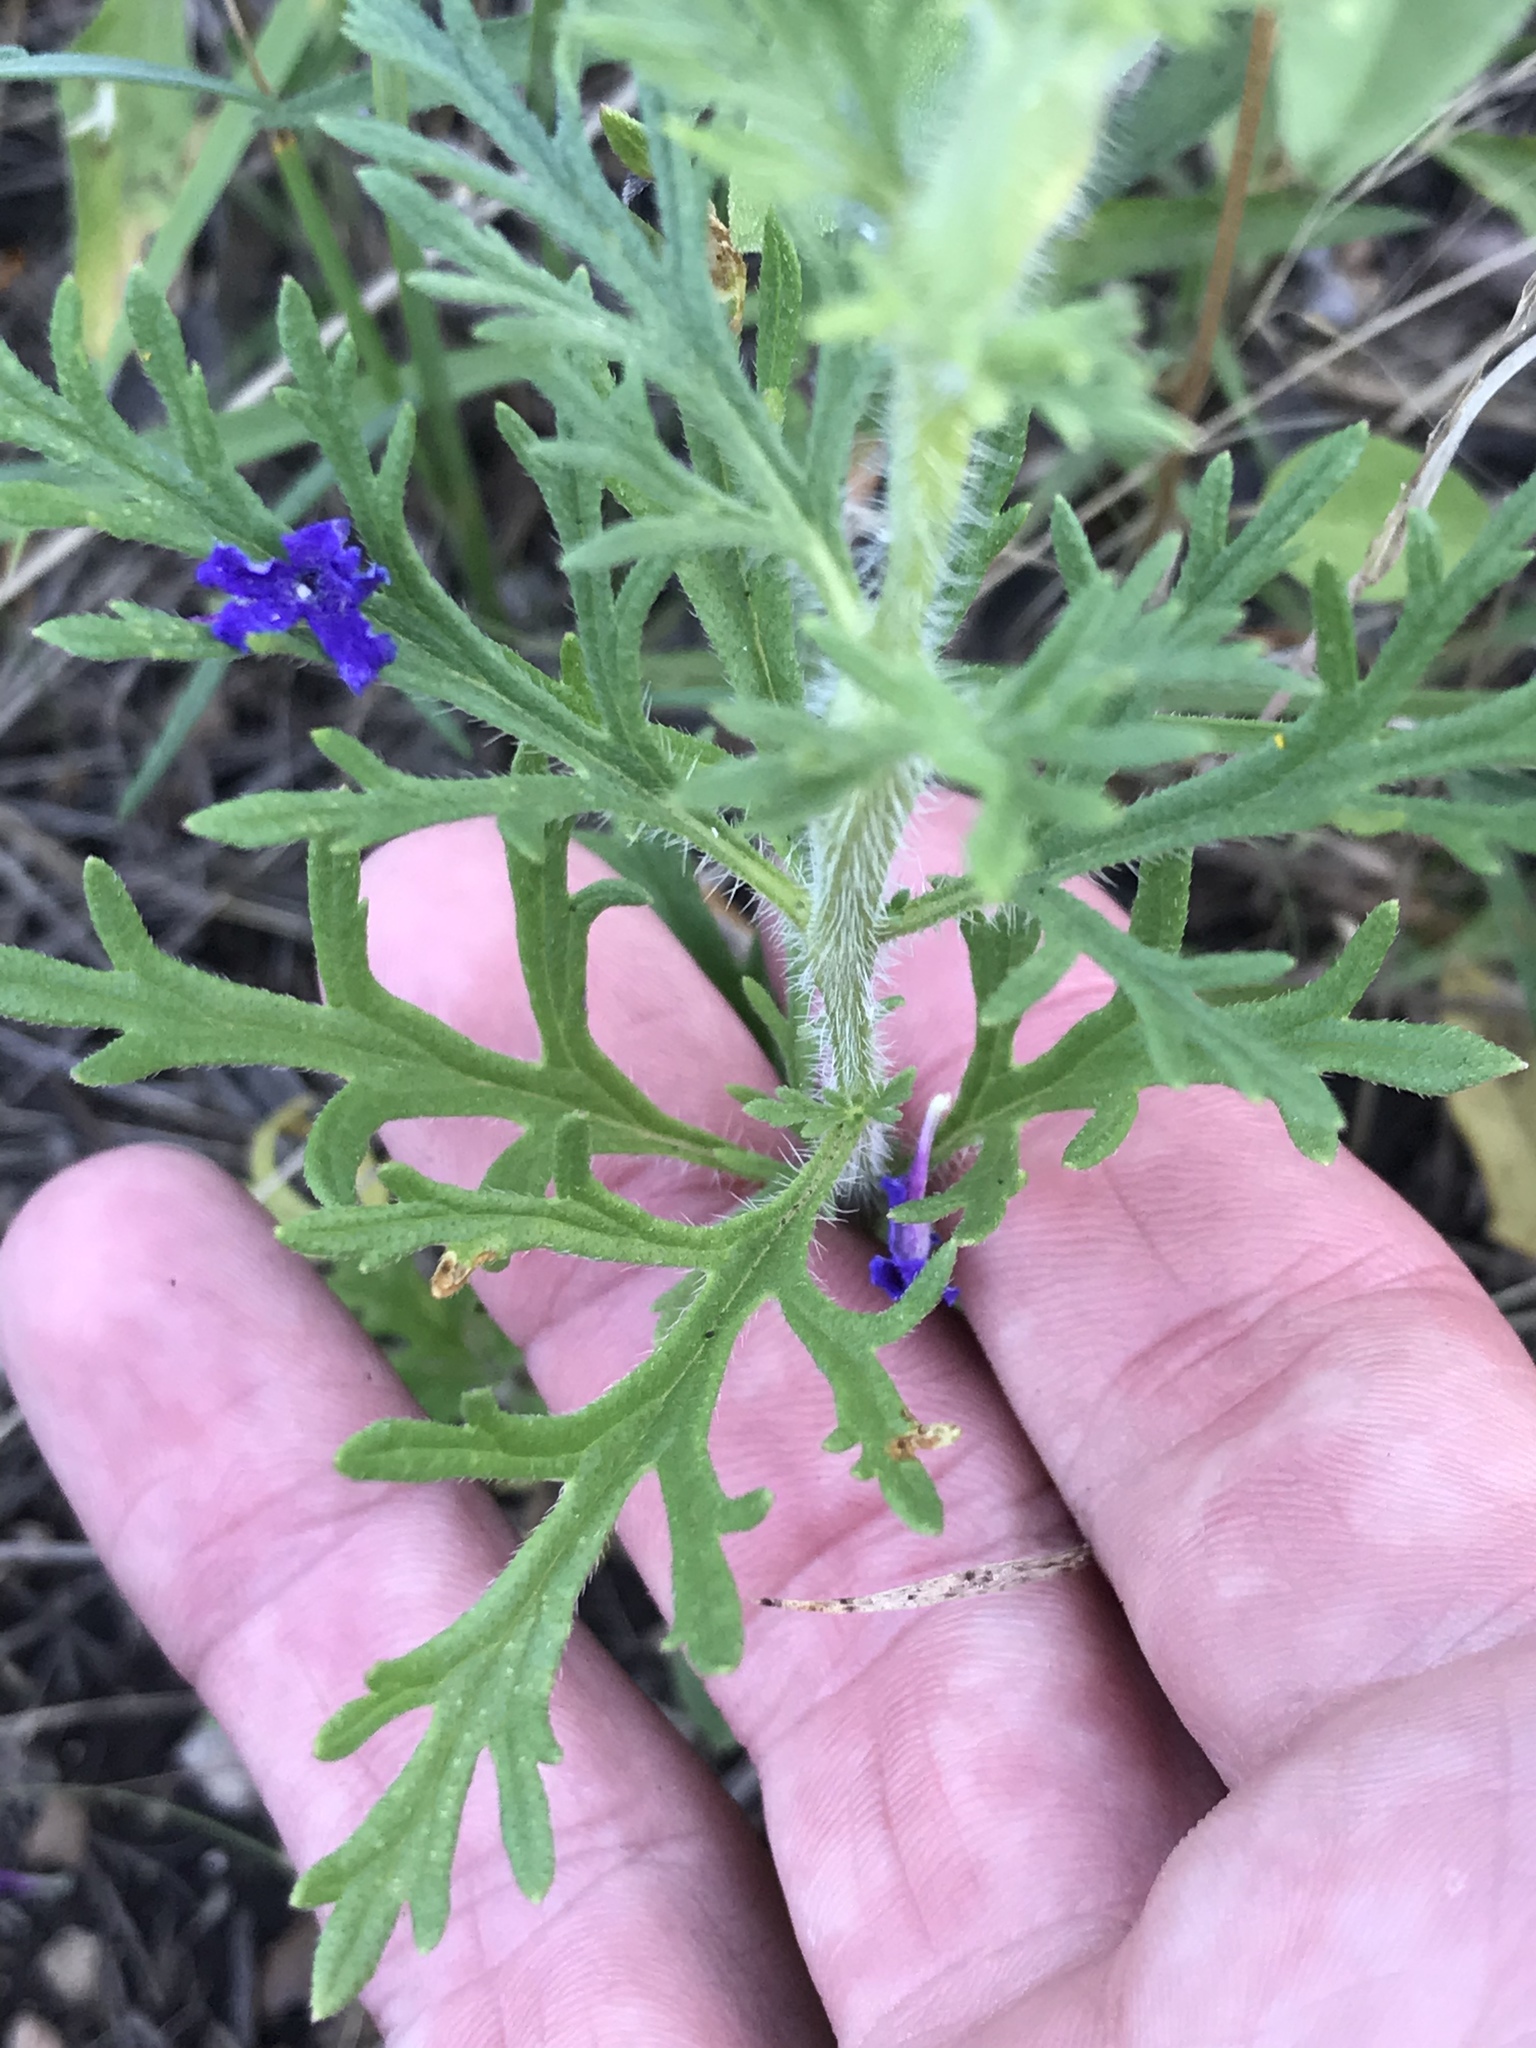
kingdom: Plantae
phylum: Tracheophyta
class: Magnoliopsida
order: Lamiales
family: Verbenaceae
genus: Verbena
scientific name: Verbena bipinnatifida
